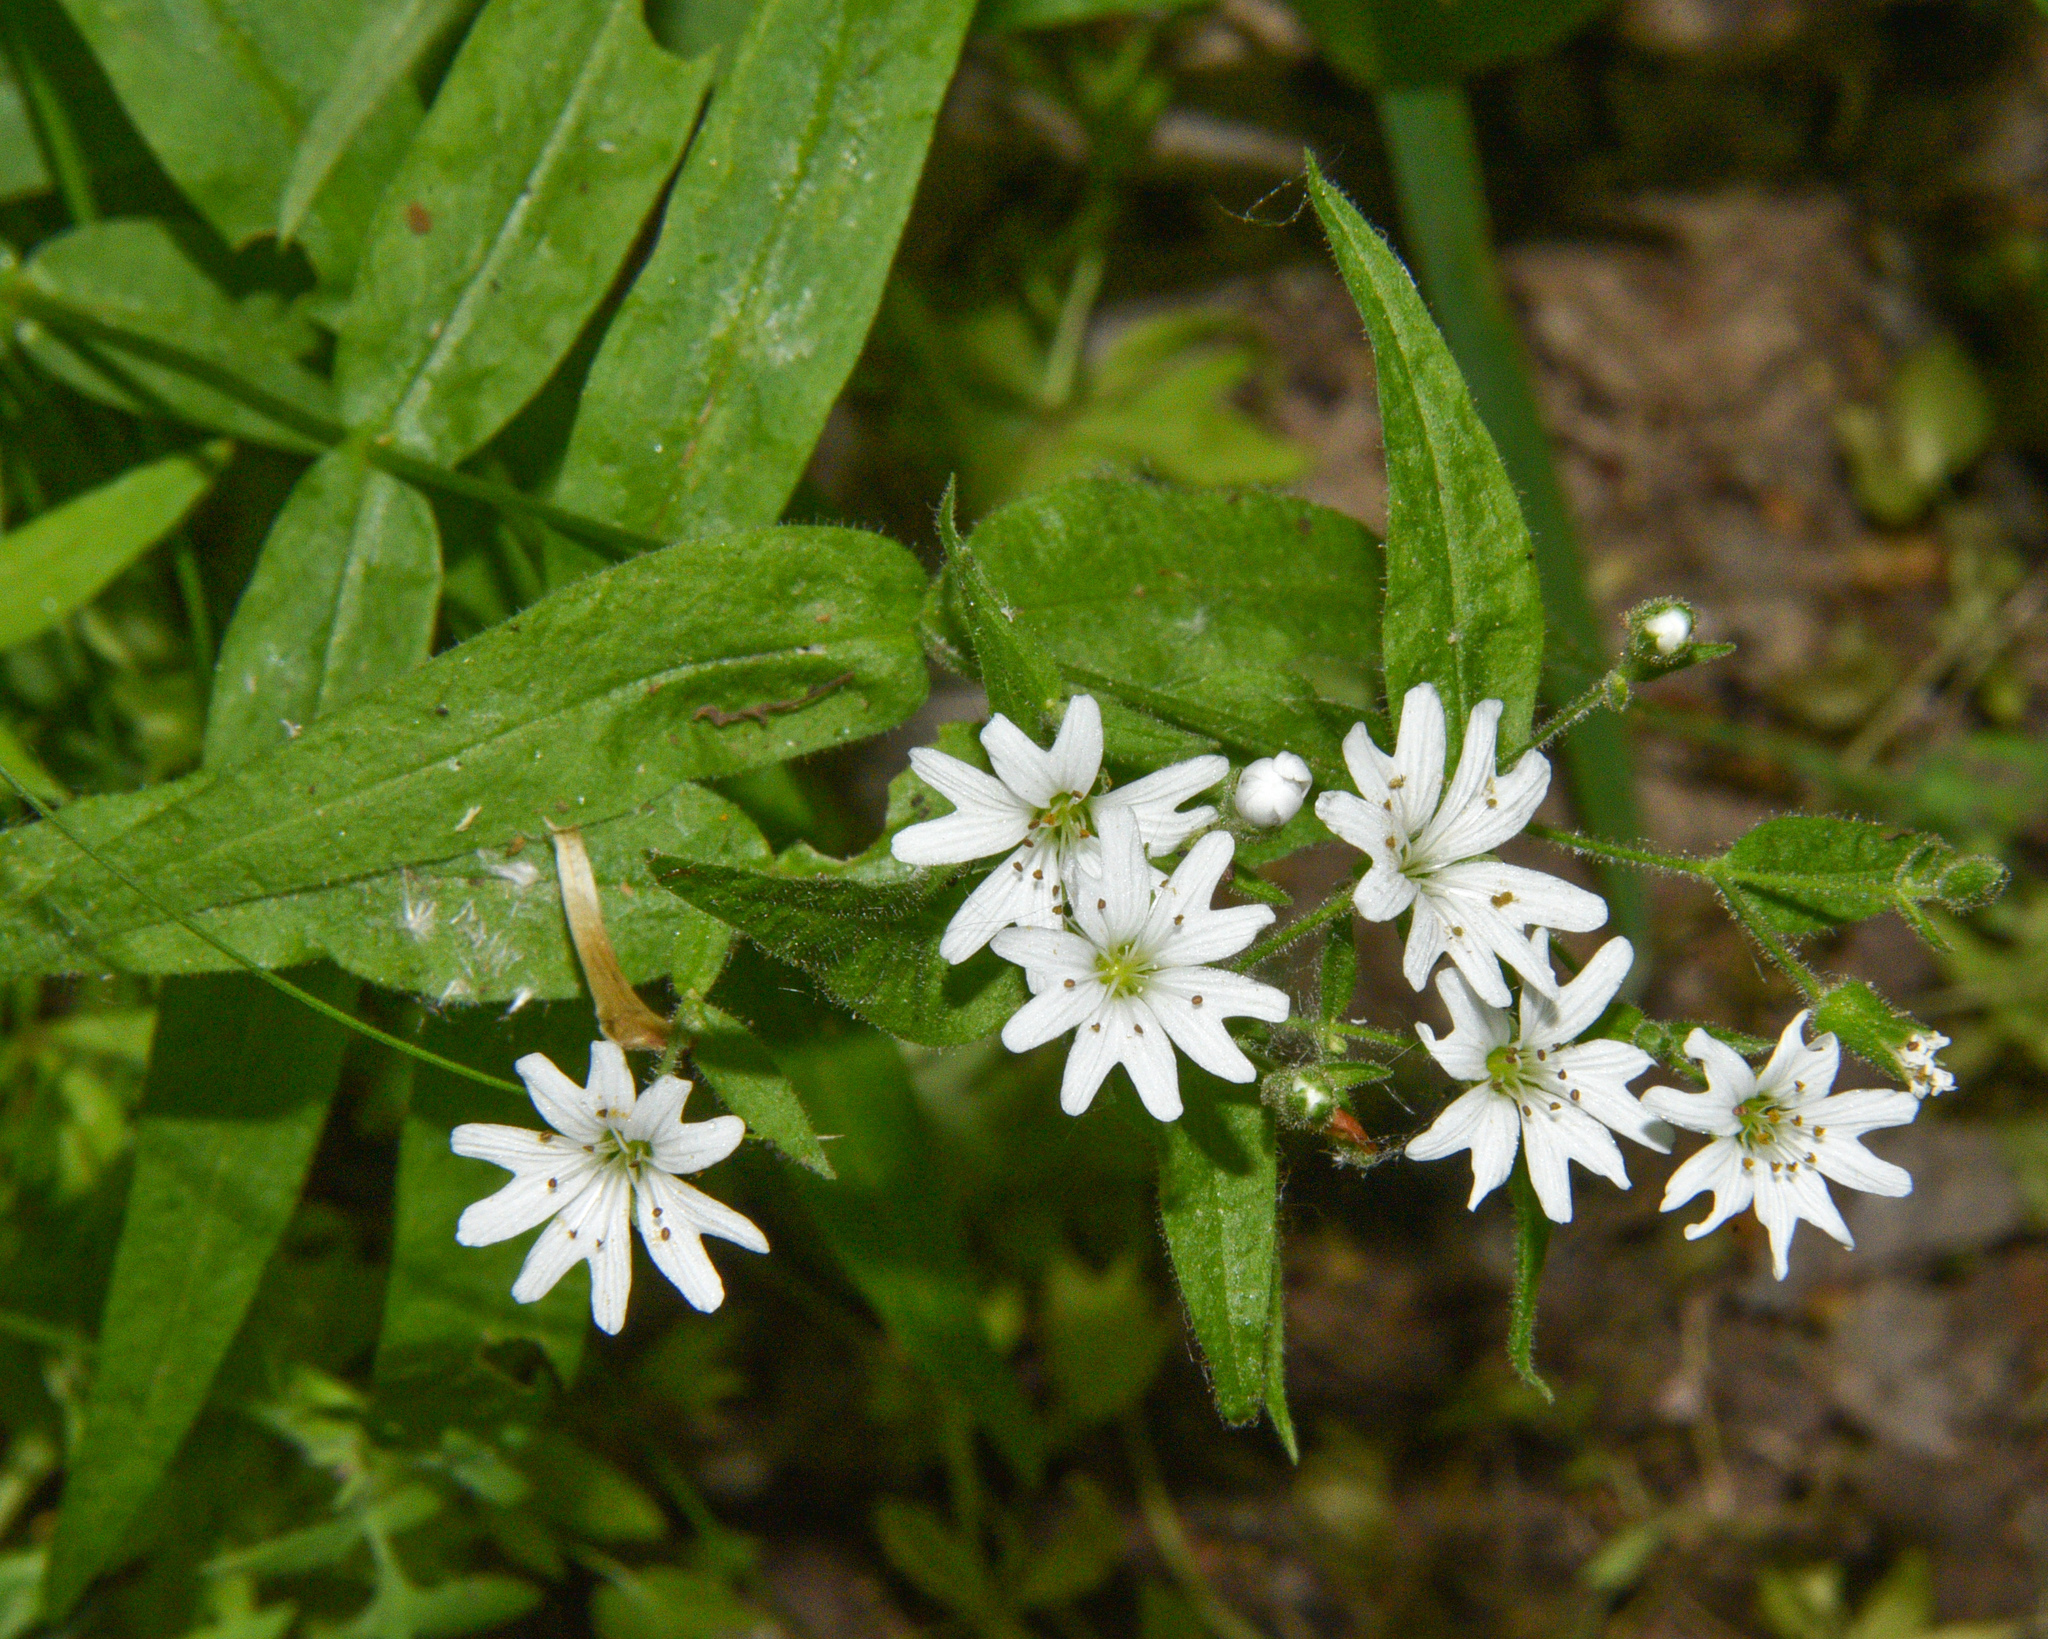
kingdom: Plantae
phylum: Tracheophyta
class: Magnoliopsida
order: Caryophyllales
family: Caryophyllaceae
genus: Schizotechium
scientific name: Schizotechium jamesianum
